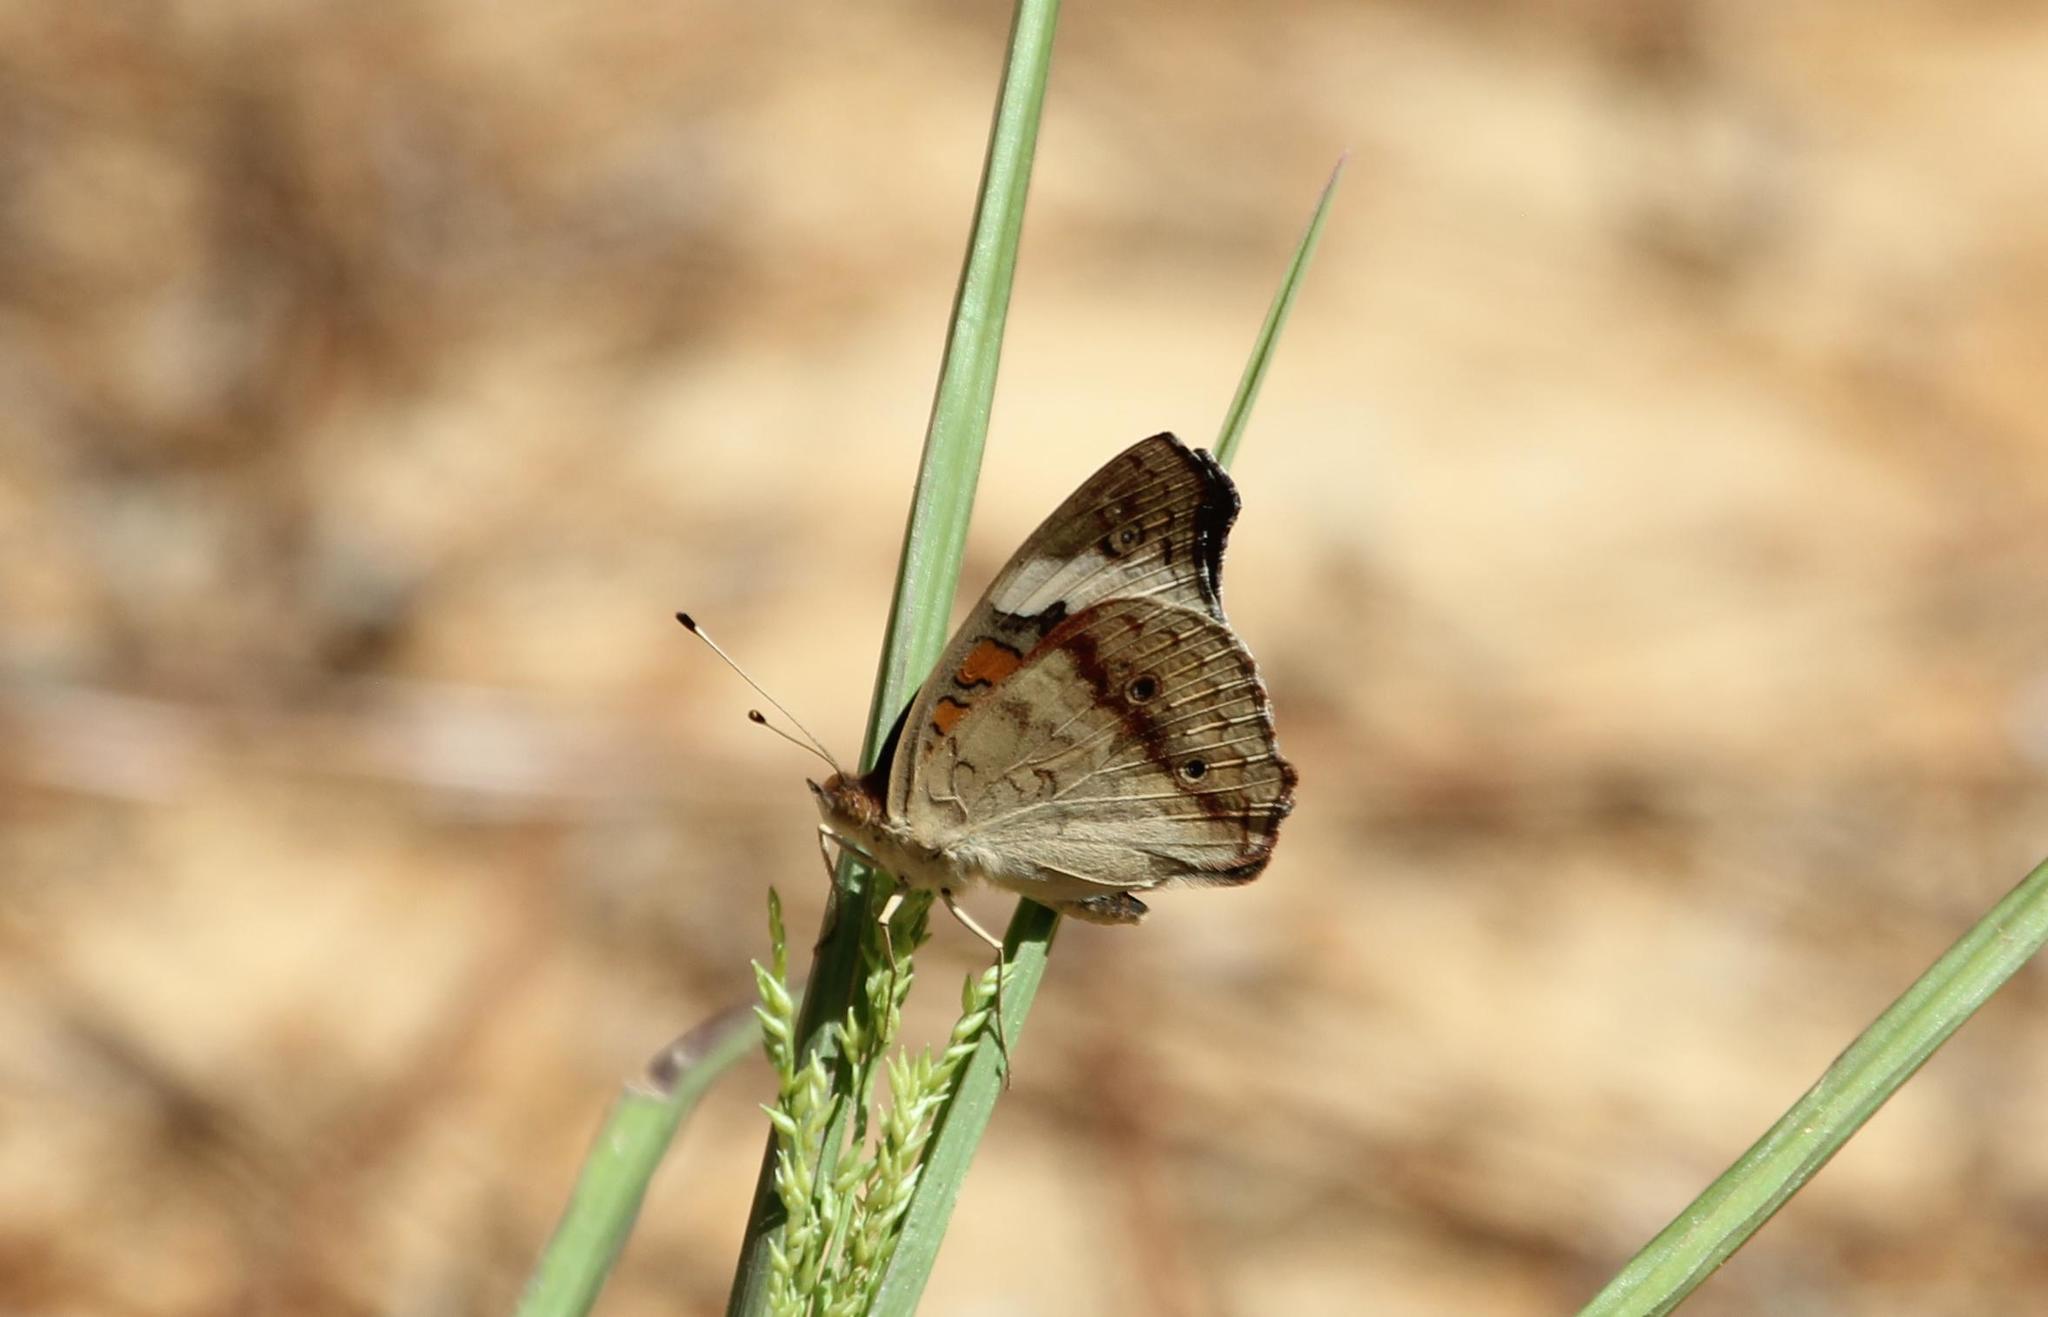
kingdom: Animalia
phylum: Arthropoda
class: Insecta
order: Lepidoptera
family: Nymphalidae
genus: Junonia
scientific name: Junonia coenia
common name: Common buckeye
